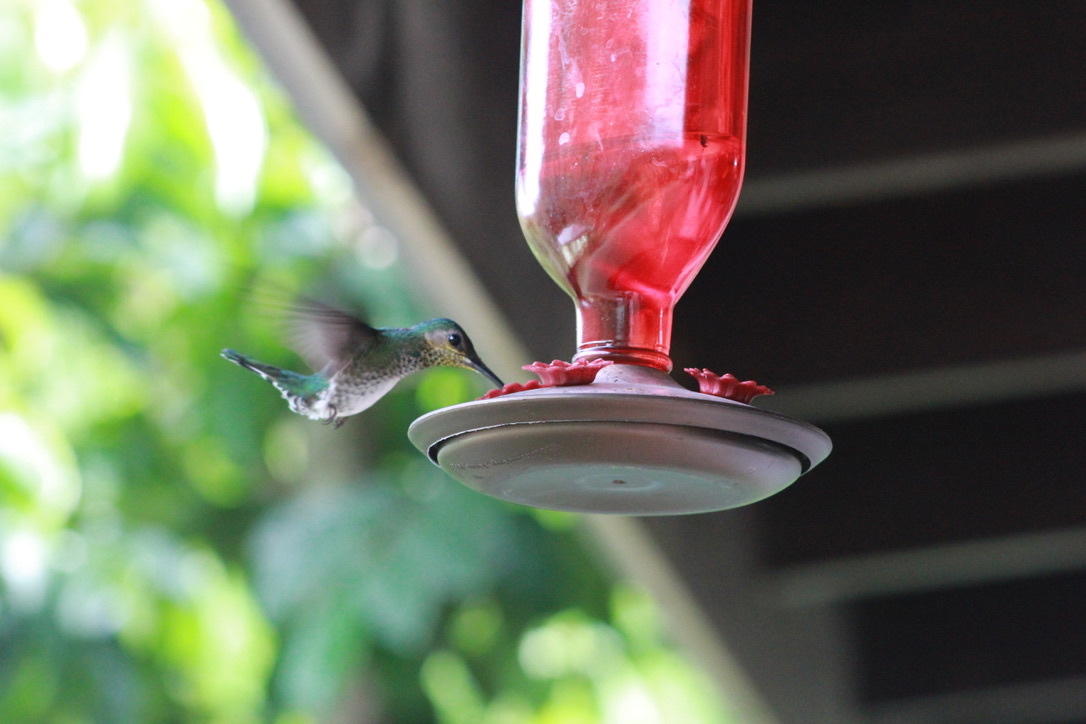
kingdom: Animalia
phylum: Chordata
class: Aves
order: Apodiformes
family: Trochilidae
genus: Florisuga
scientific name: Florisuga mellivora
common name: White-necked jacobin
